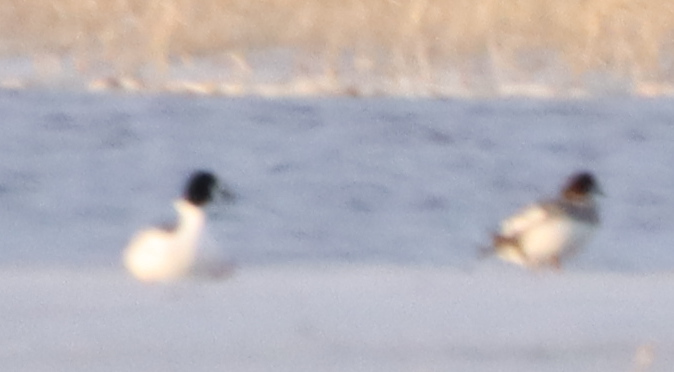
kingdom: Animalia
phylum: Chordata
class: Aves
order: Anseriformes
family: Anatidae
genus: Bucephala
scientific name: Bucephala clangula
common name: Common goldeneye
